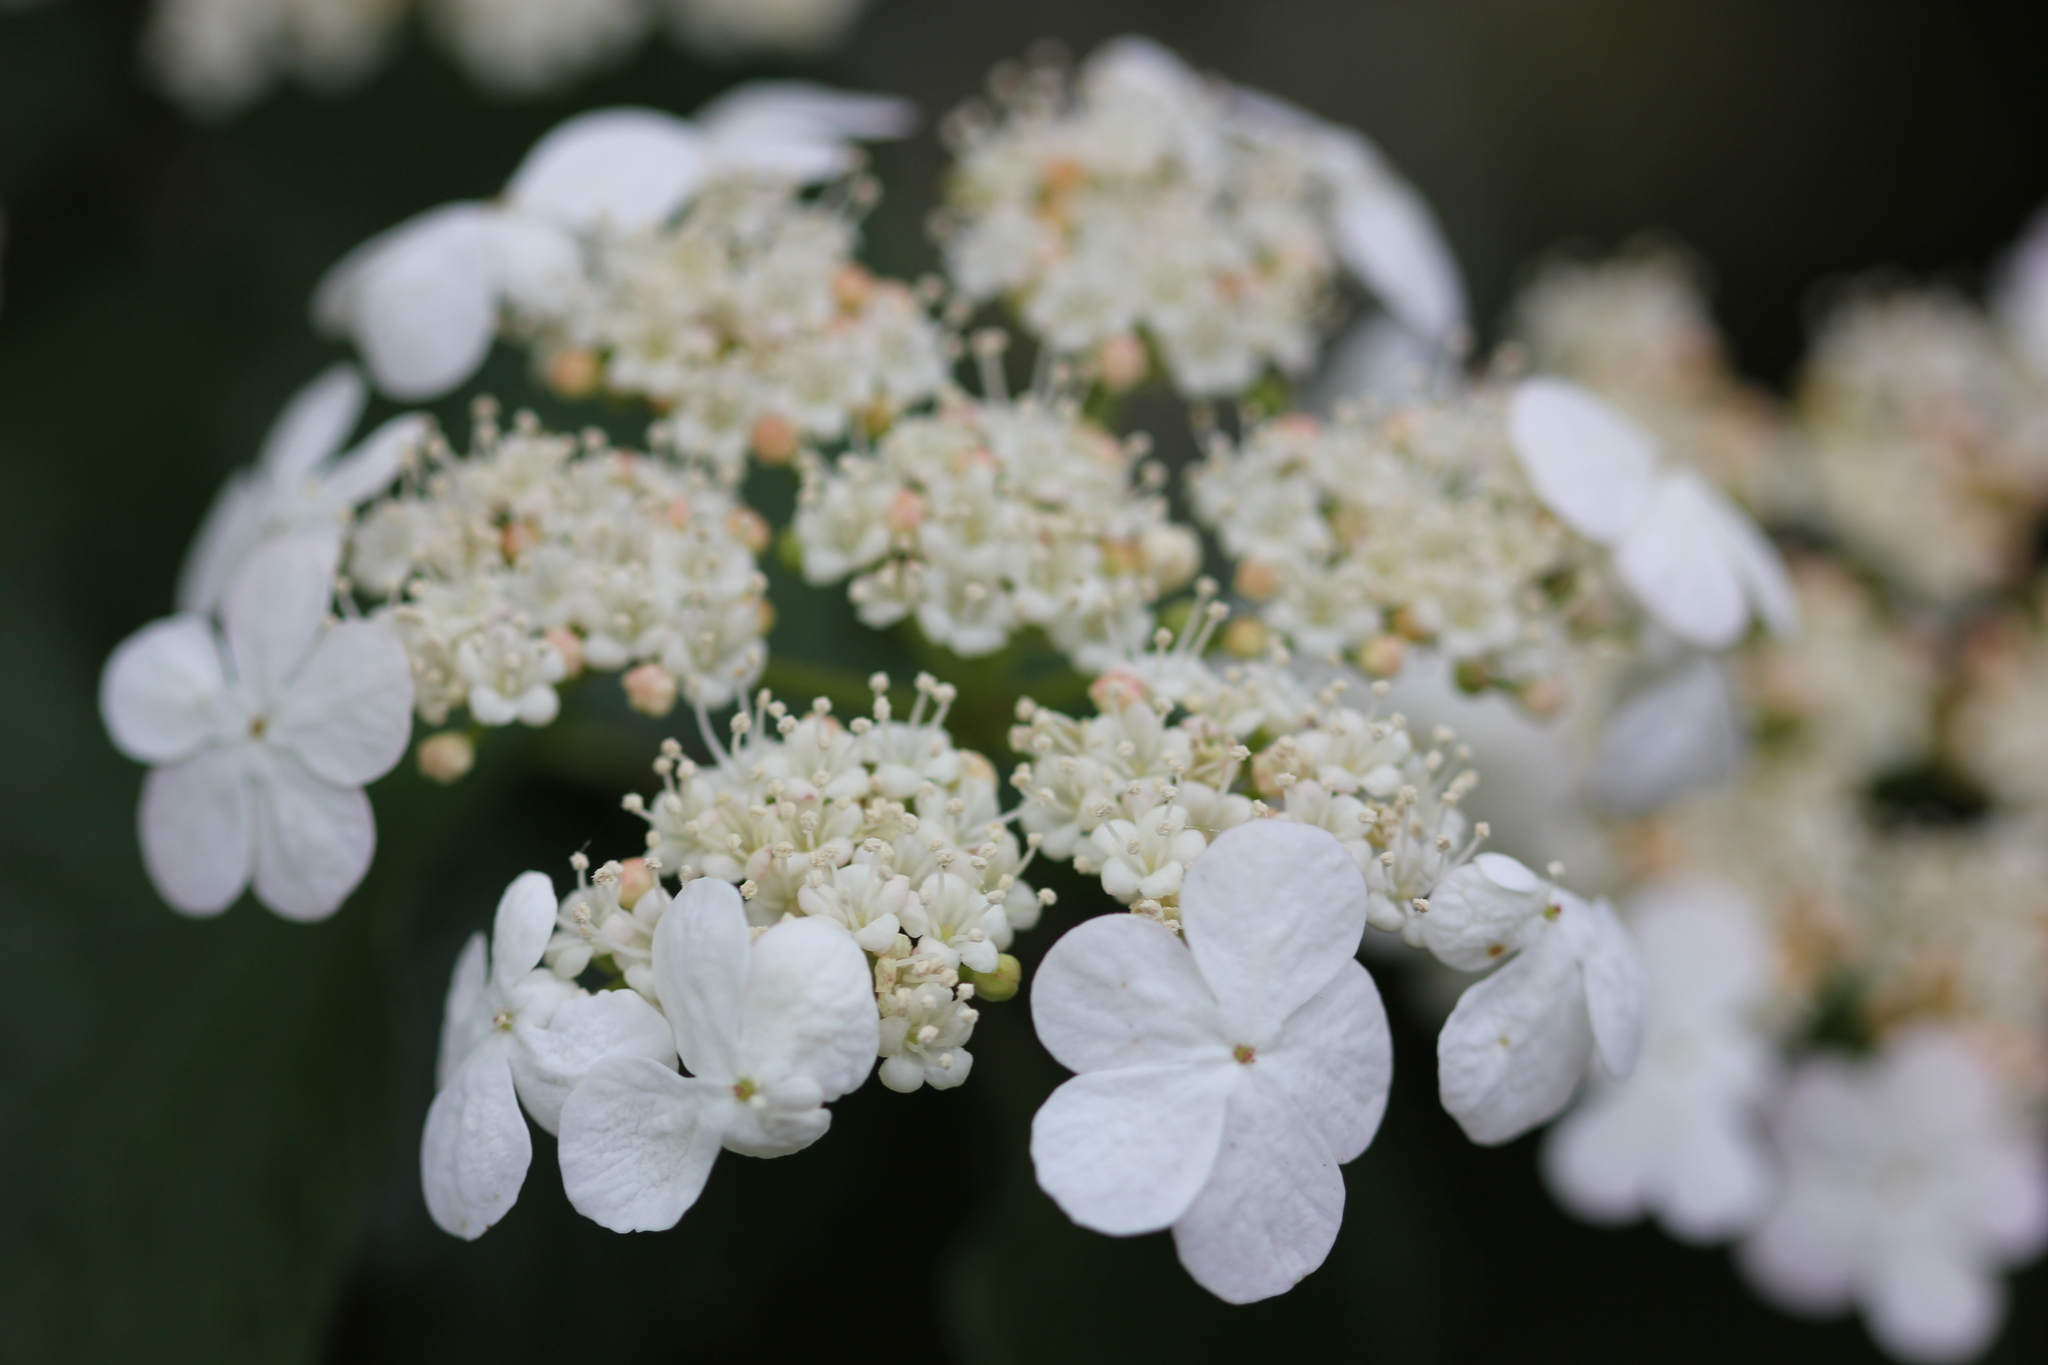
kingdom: Plantae
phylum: Tracheophyta
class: Magnoliopsida
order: Dipsacales
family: Viburnaceae
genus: Viburnum
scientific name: Viburnum plicatum
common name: Japanese snowball
